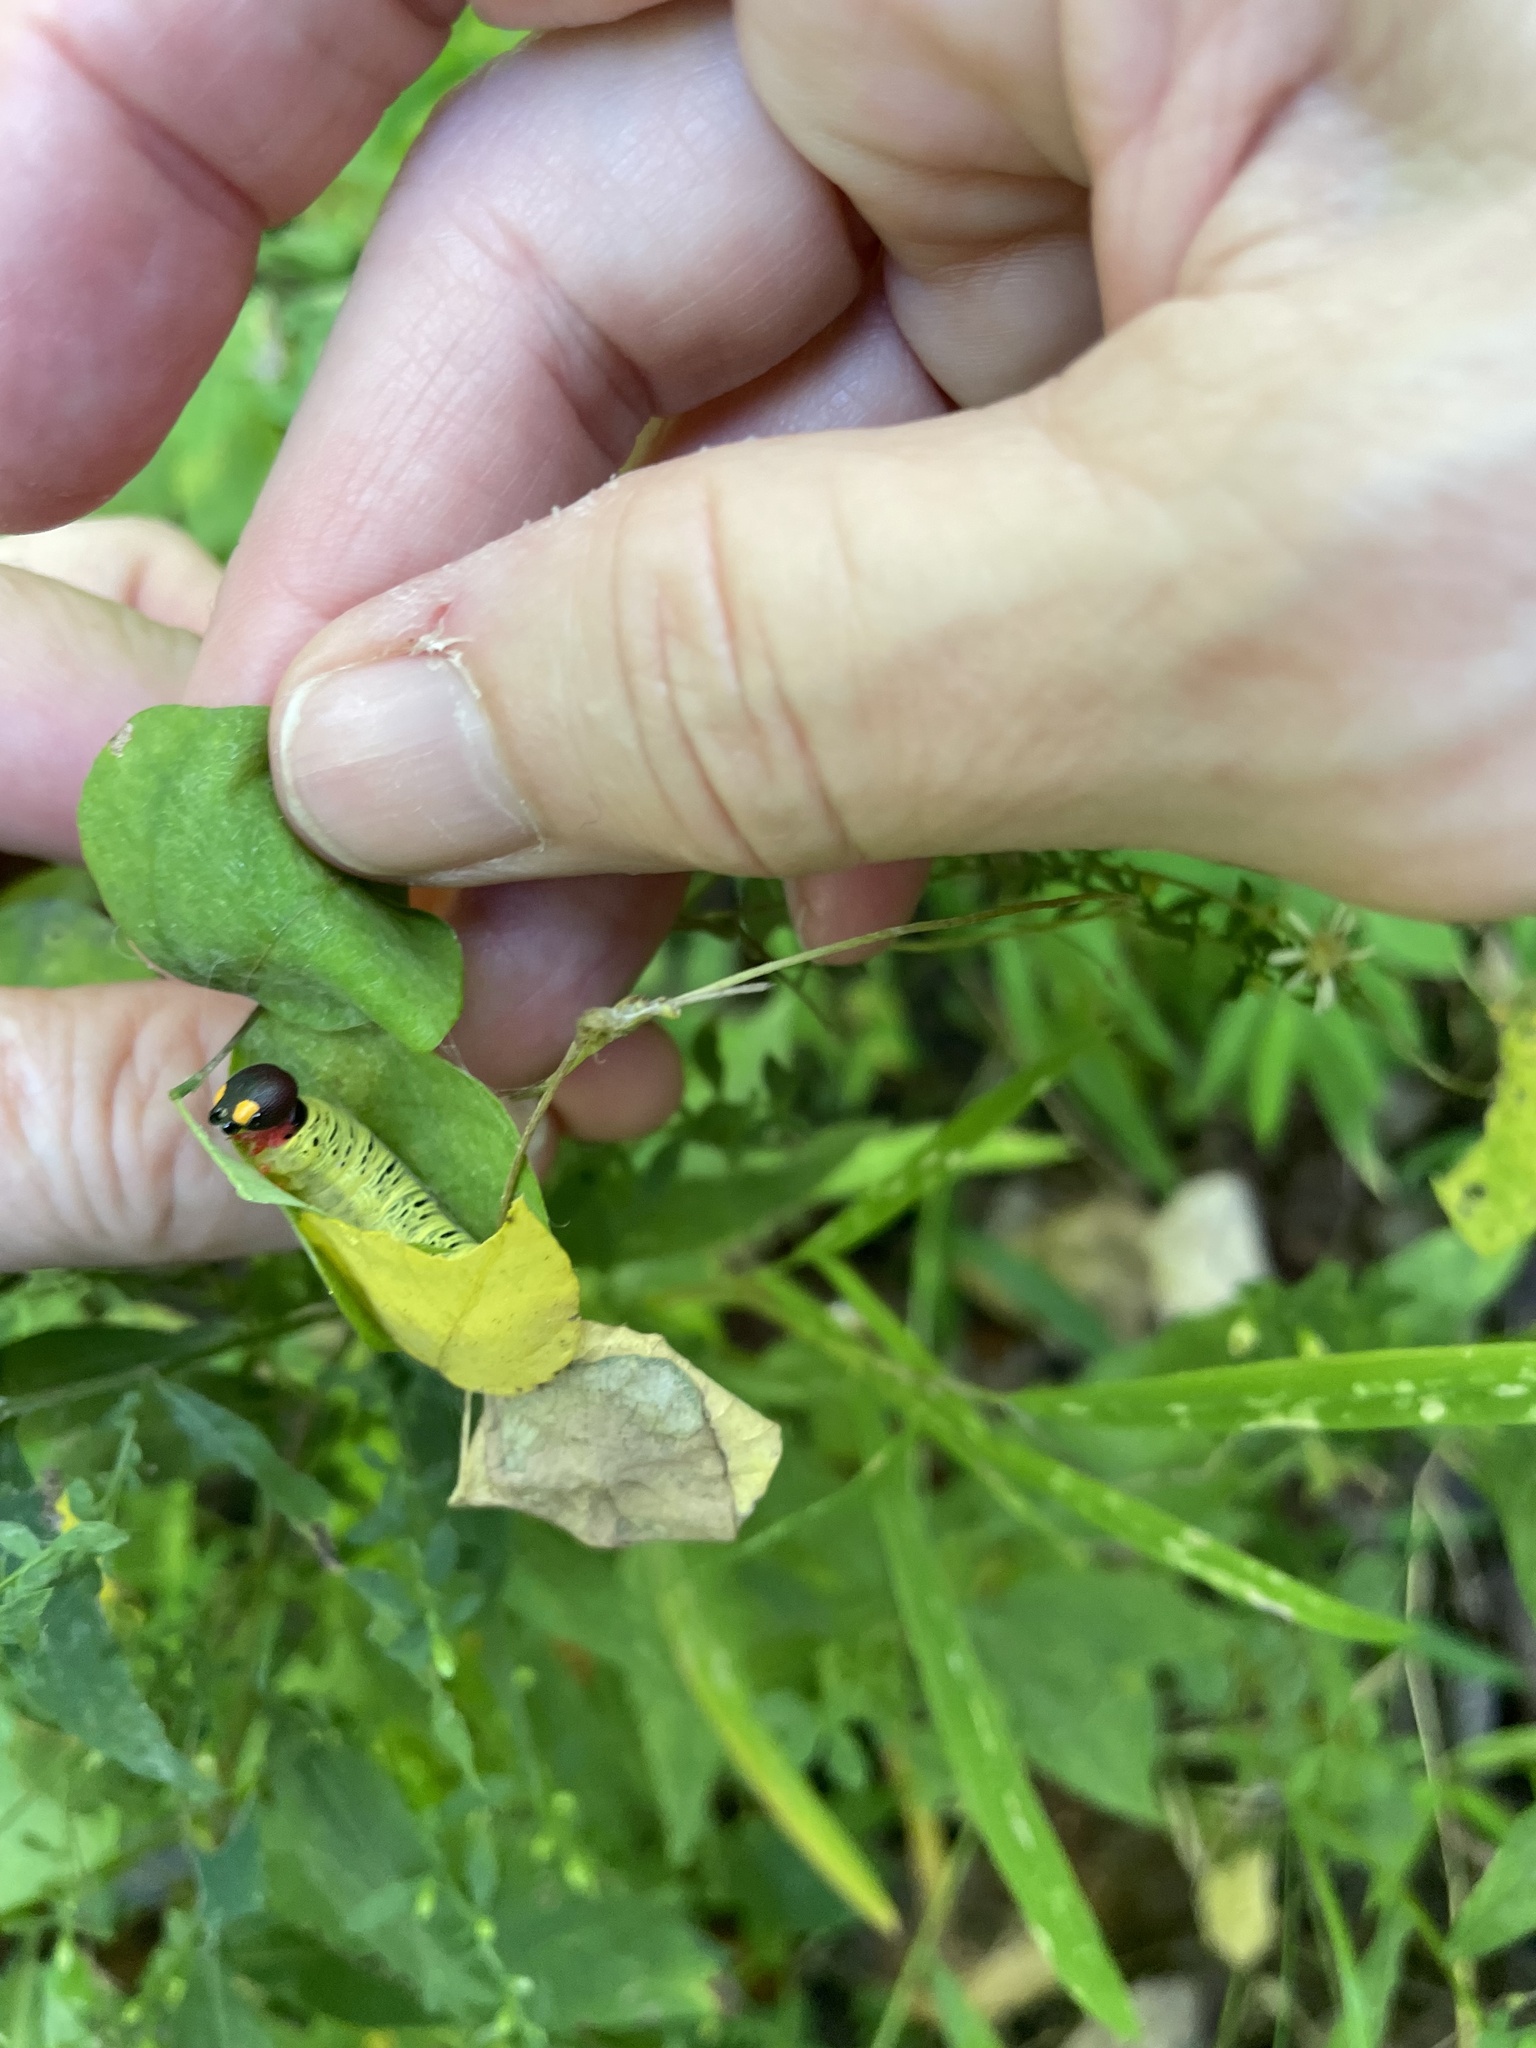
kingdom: Animalia
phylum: Arthropoda
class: Insecta
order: Lepidoptera
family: Hesperiidae
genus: Epargyreus
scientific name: Epargyreus clarus
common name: Silver-spotted skipper
